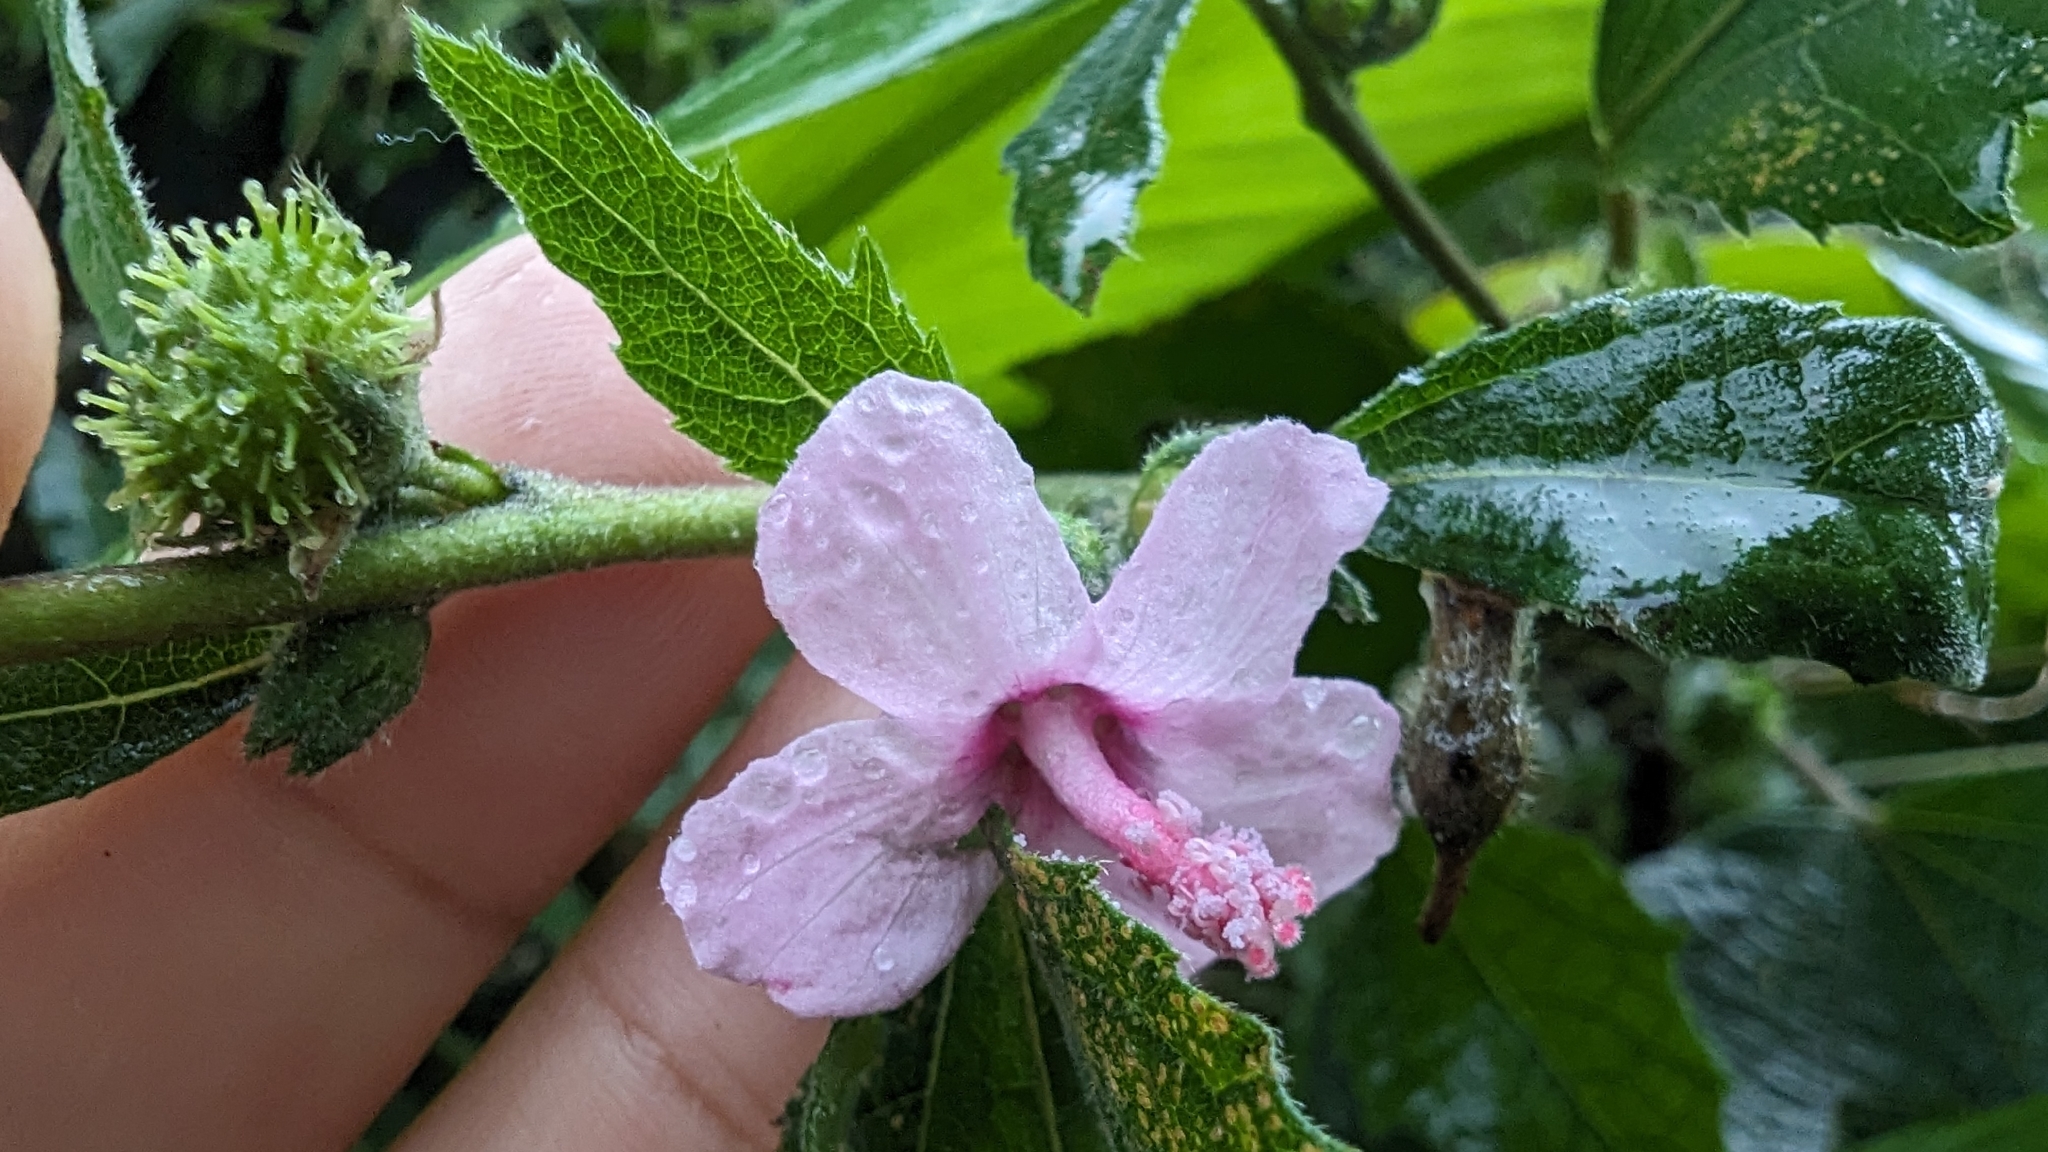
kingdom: Plantae
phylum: Tracheophyta
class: Magnoliopsida
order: Malvales
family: Malvaceae
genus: Urena
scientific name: Urena lobata
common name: Caesarweed
